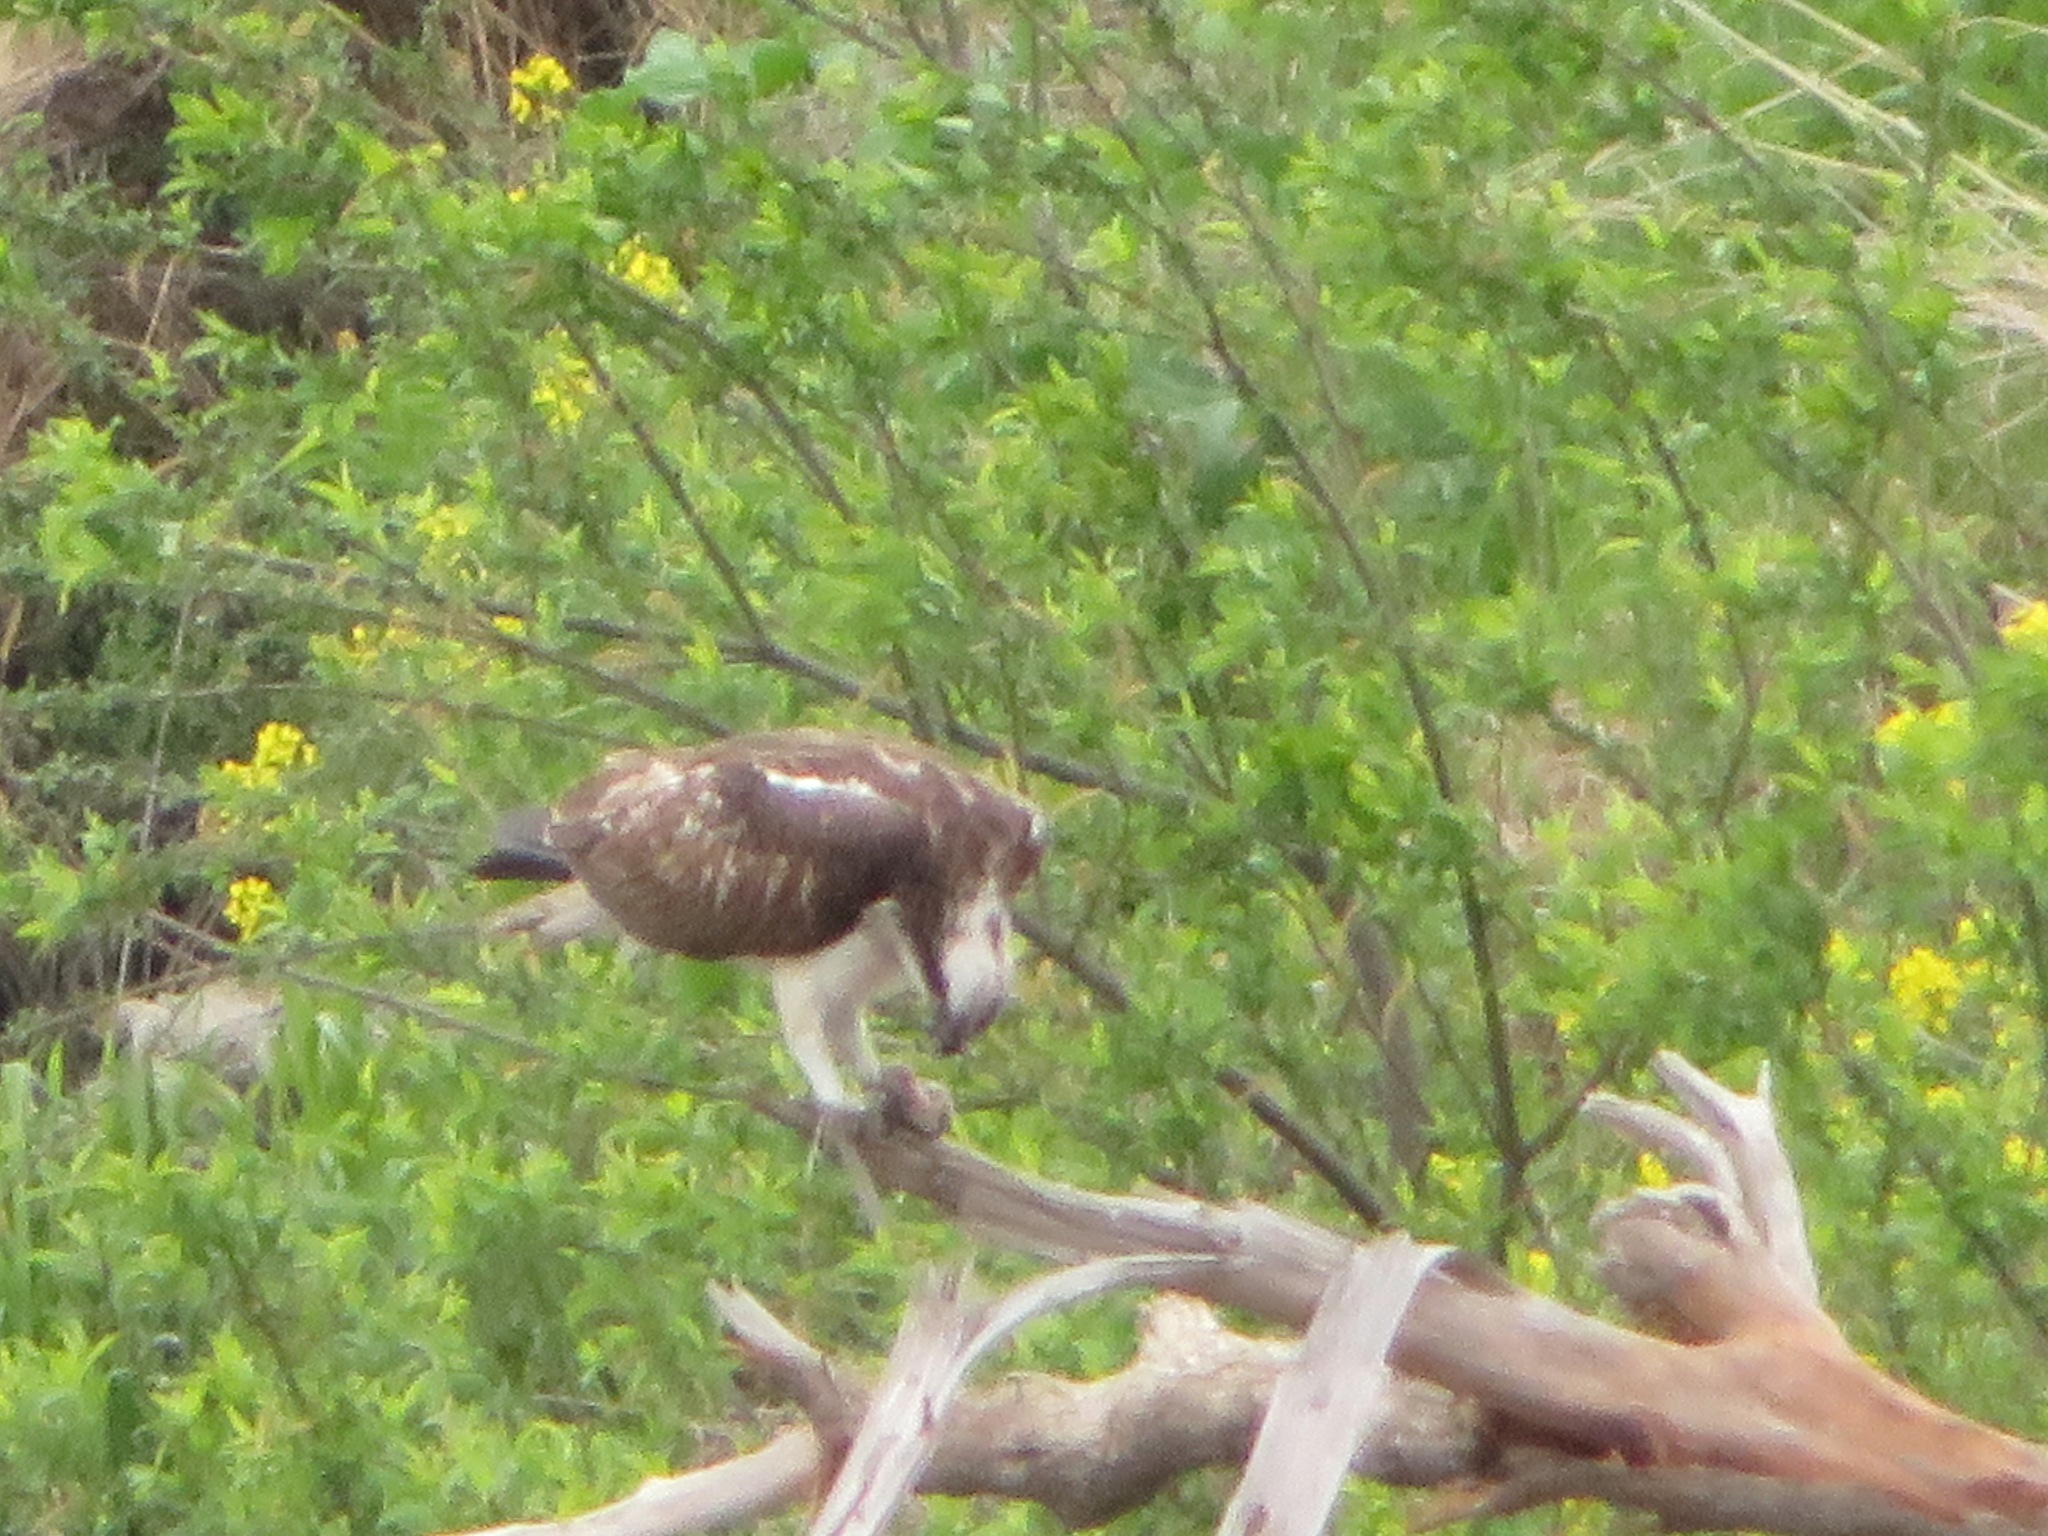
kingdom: Animalia
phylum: Chordata
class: Aves
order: Accipitriformes
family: Pandionidae
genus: Pandion
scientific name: Pandion haliaetus
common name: Osprey
